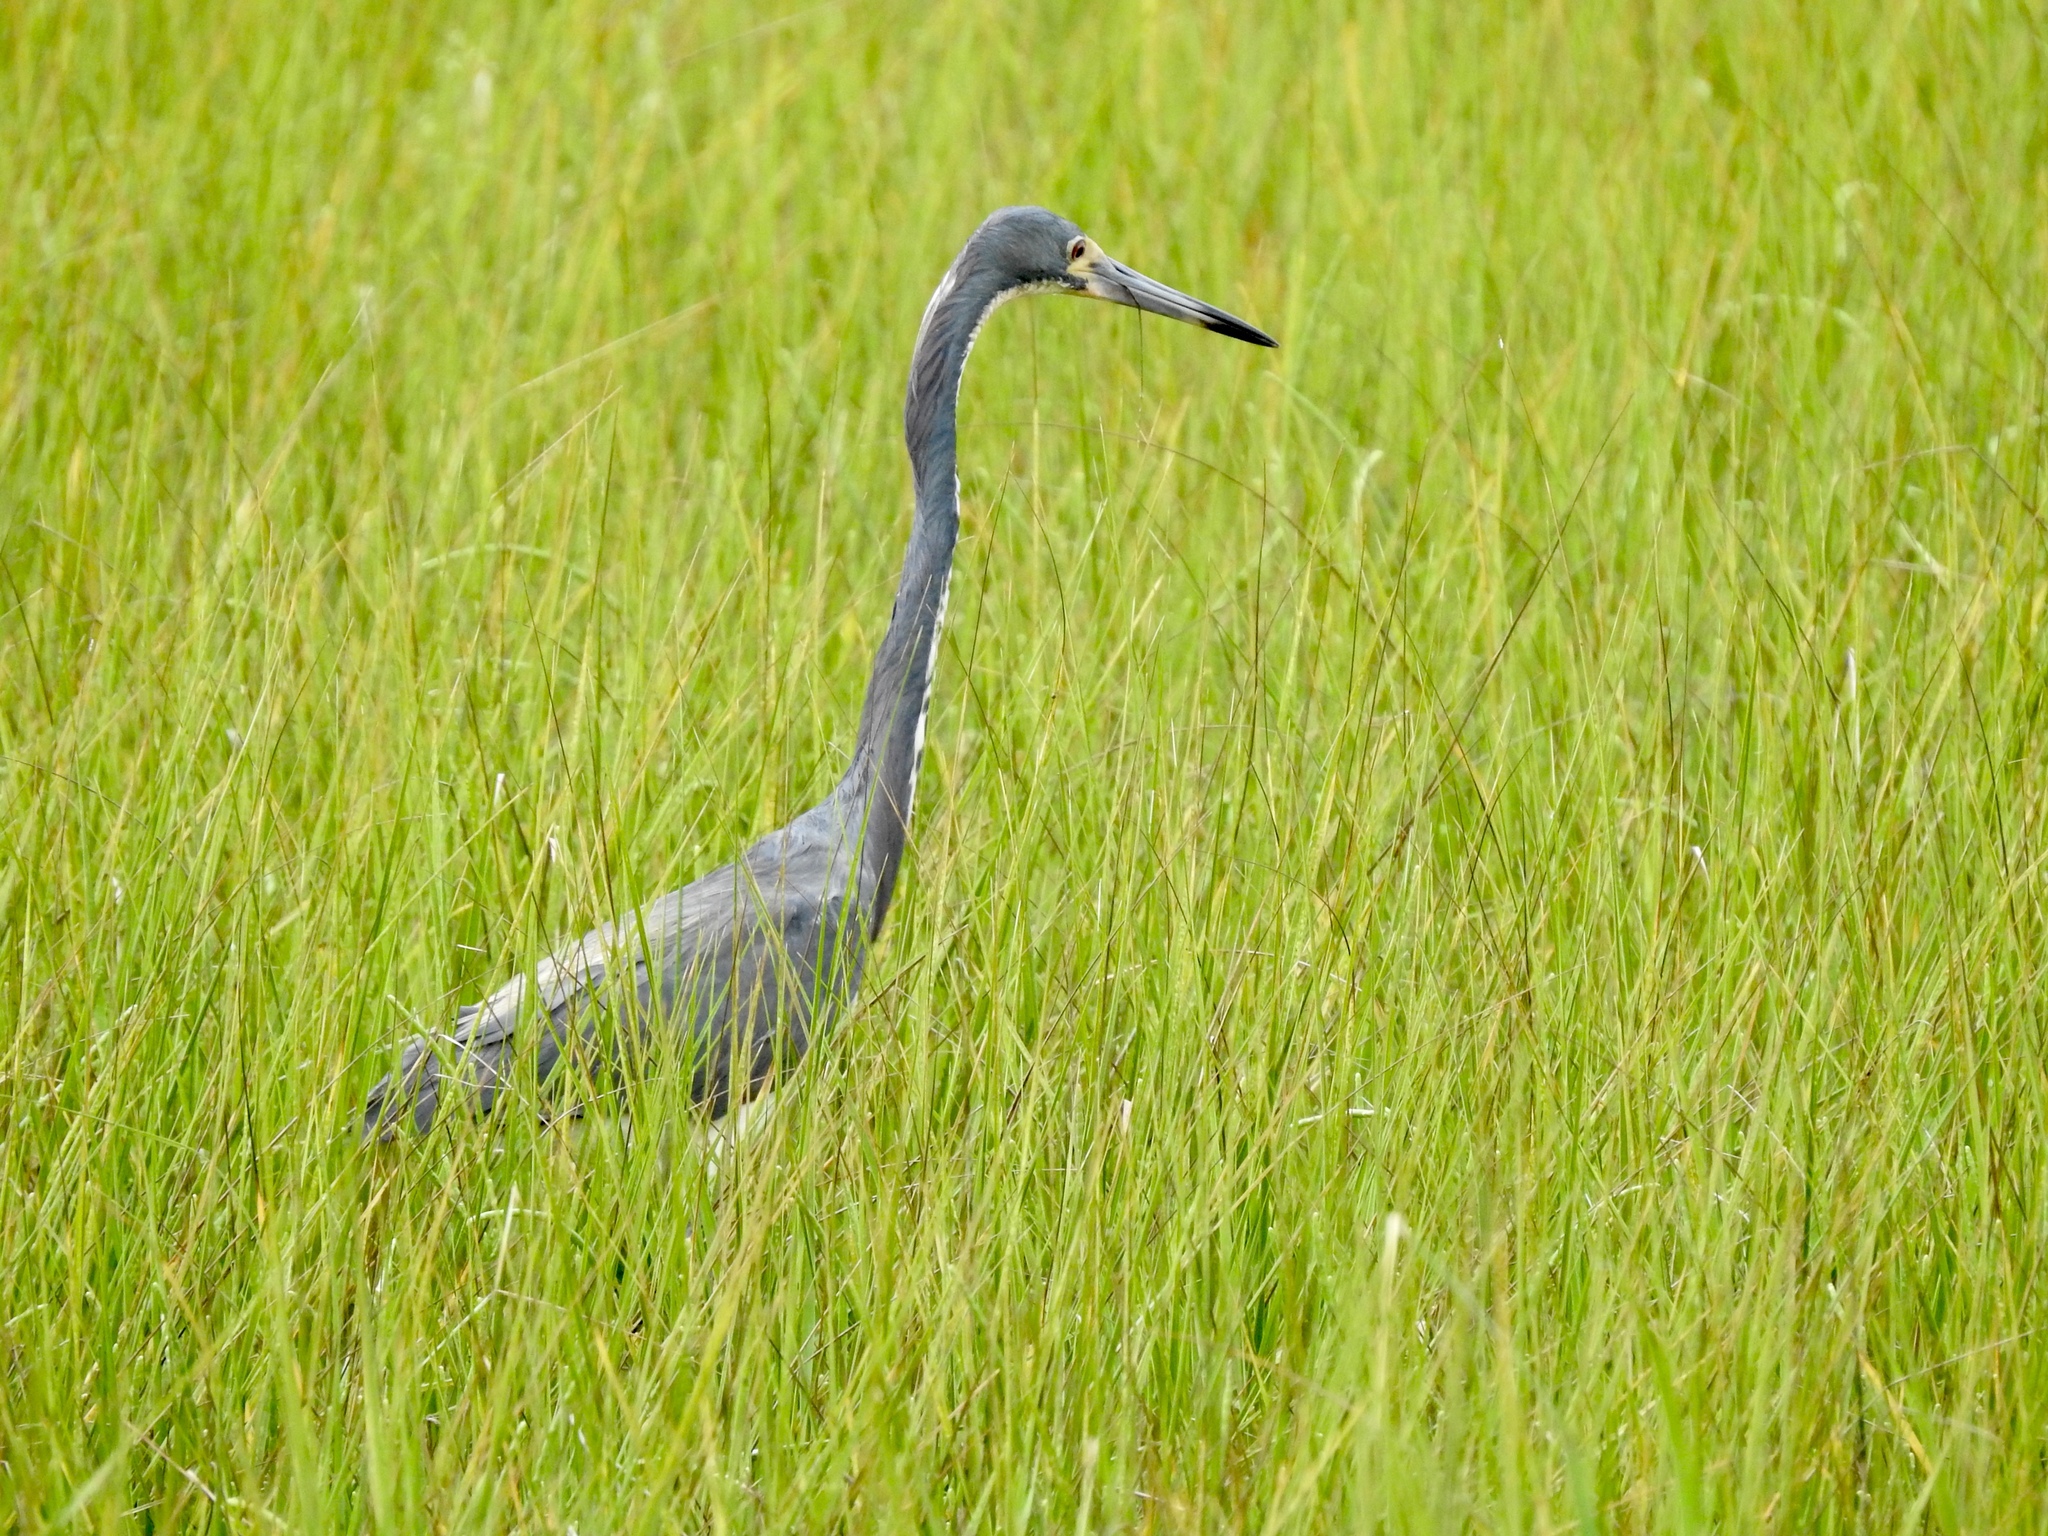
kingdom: Animalia
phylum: Chordata
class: Aves
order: Pelecaniformes
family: Ardeidae
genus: Egretta
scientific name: Egretta tricolor
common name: Tricolored heron
